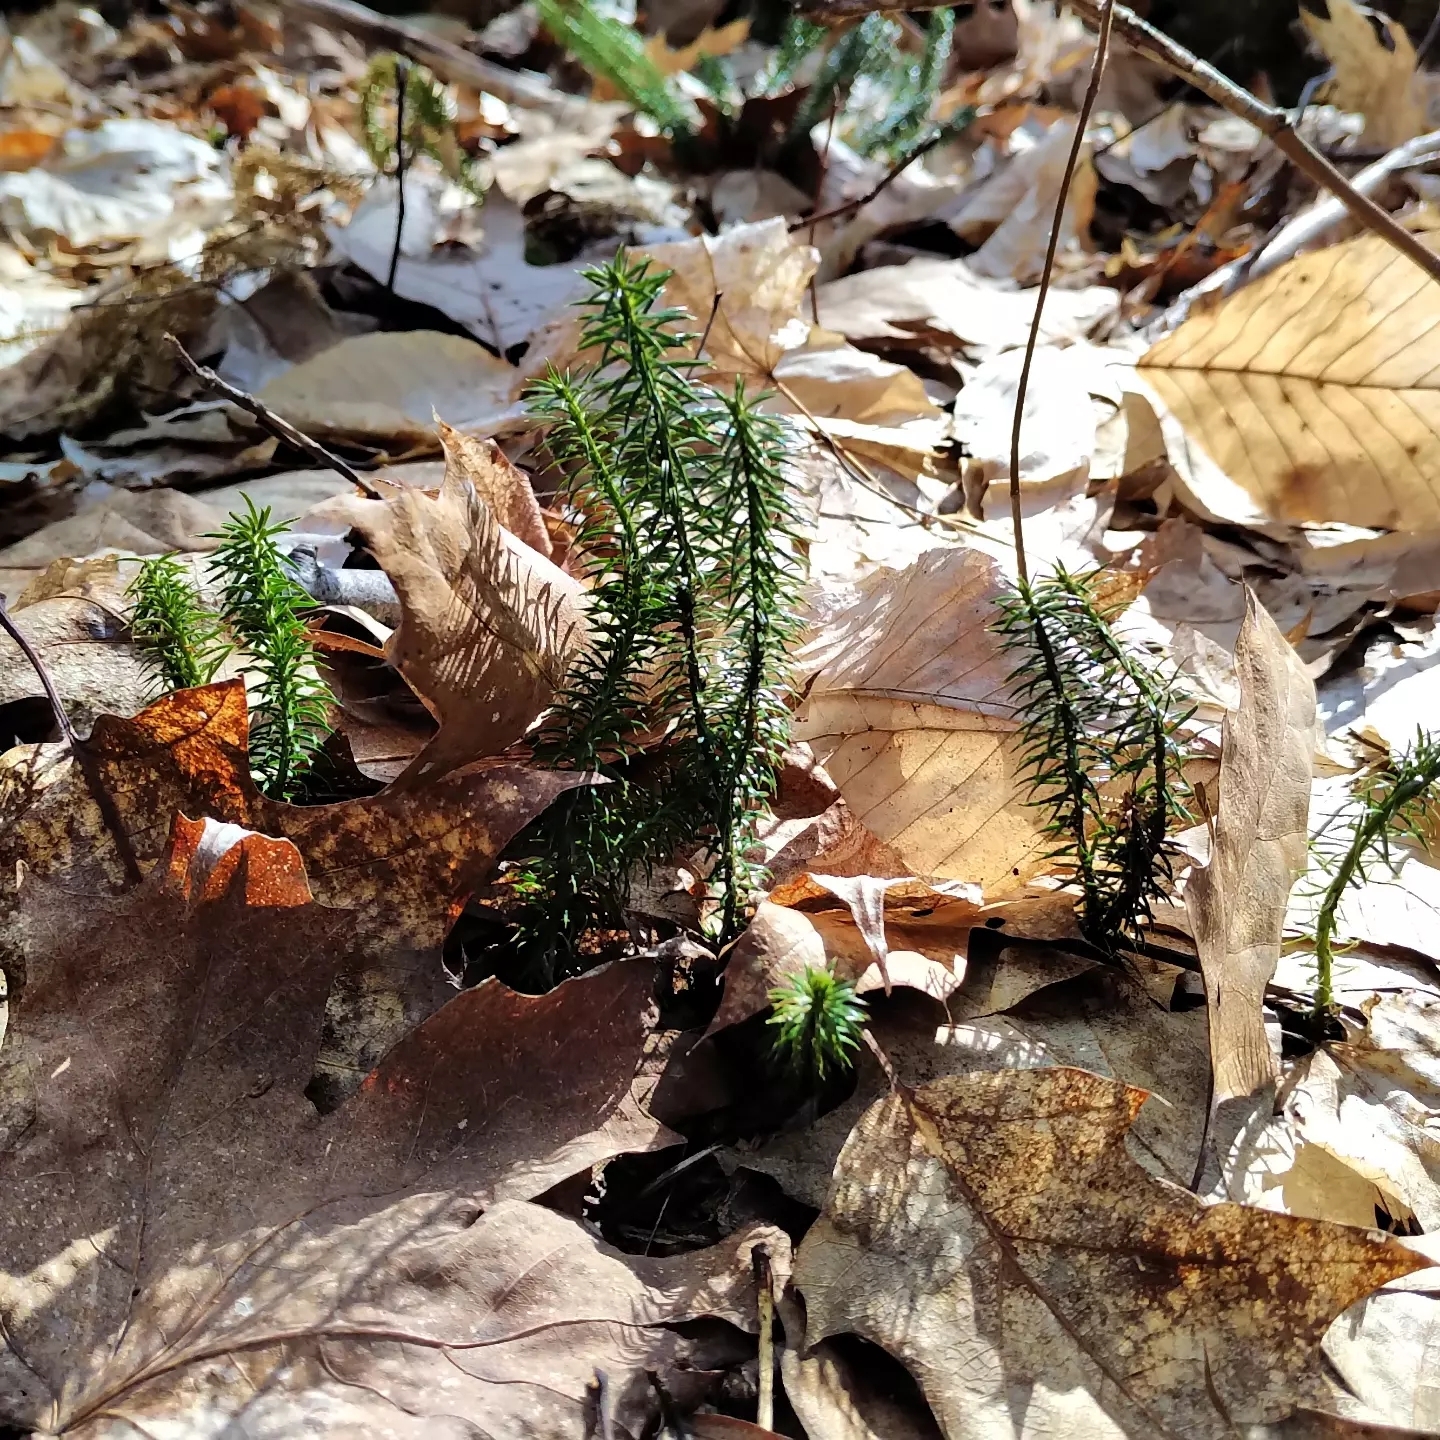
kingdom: Plantae
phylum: Tracheophyta
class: Lycopodiopsida
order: Lycopodiales
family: Lycopodiaceae
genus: Spinulum
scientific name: Spinulum annotinum
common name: Interrupted club-moss
